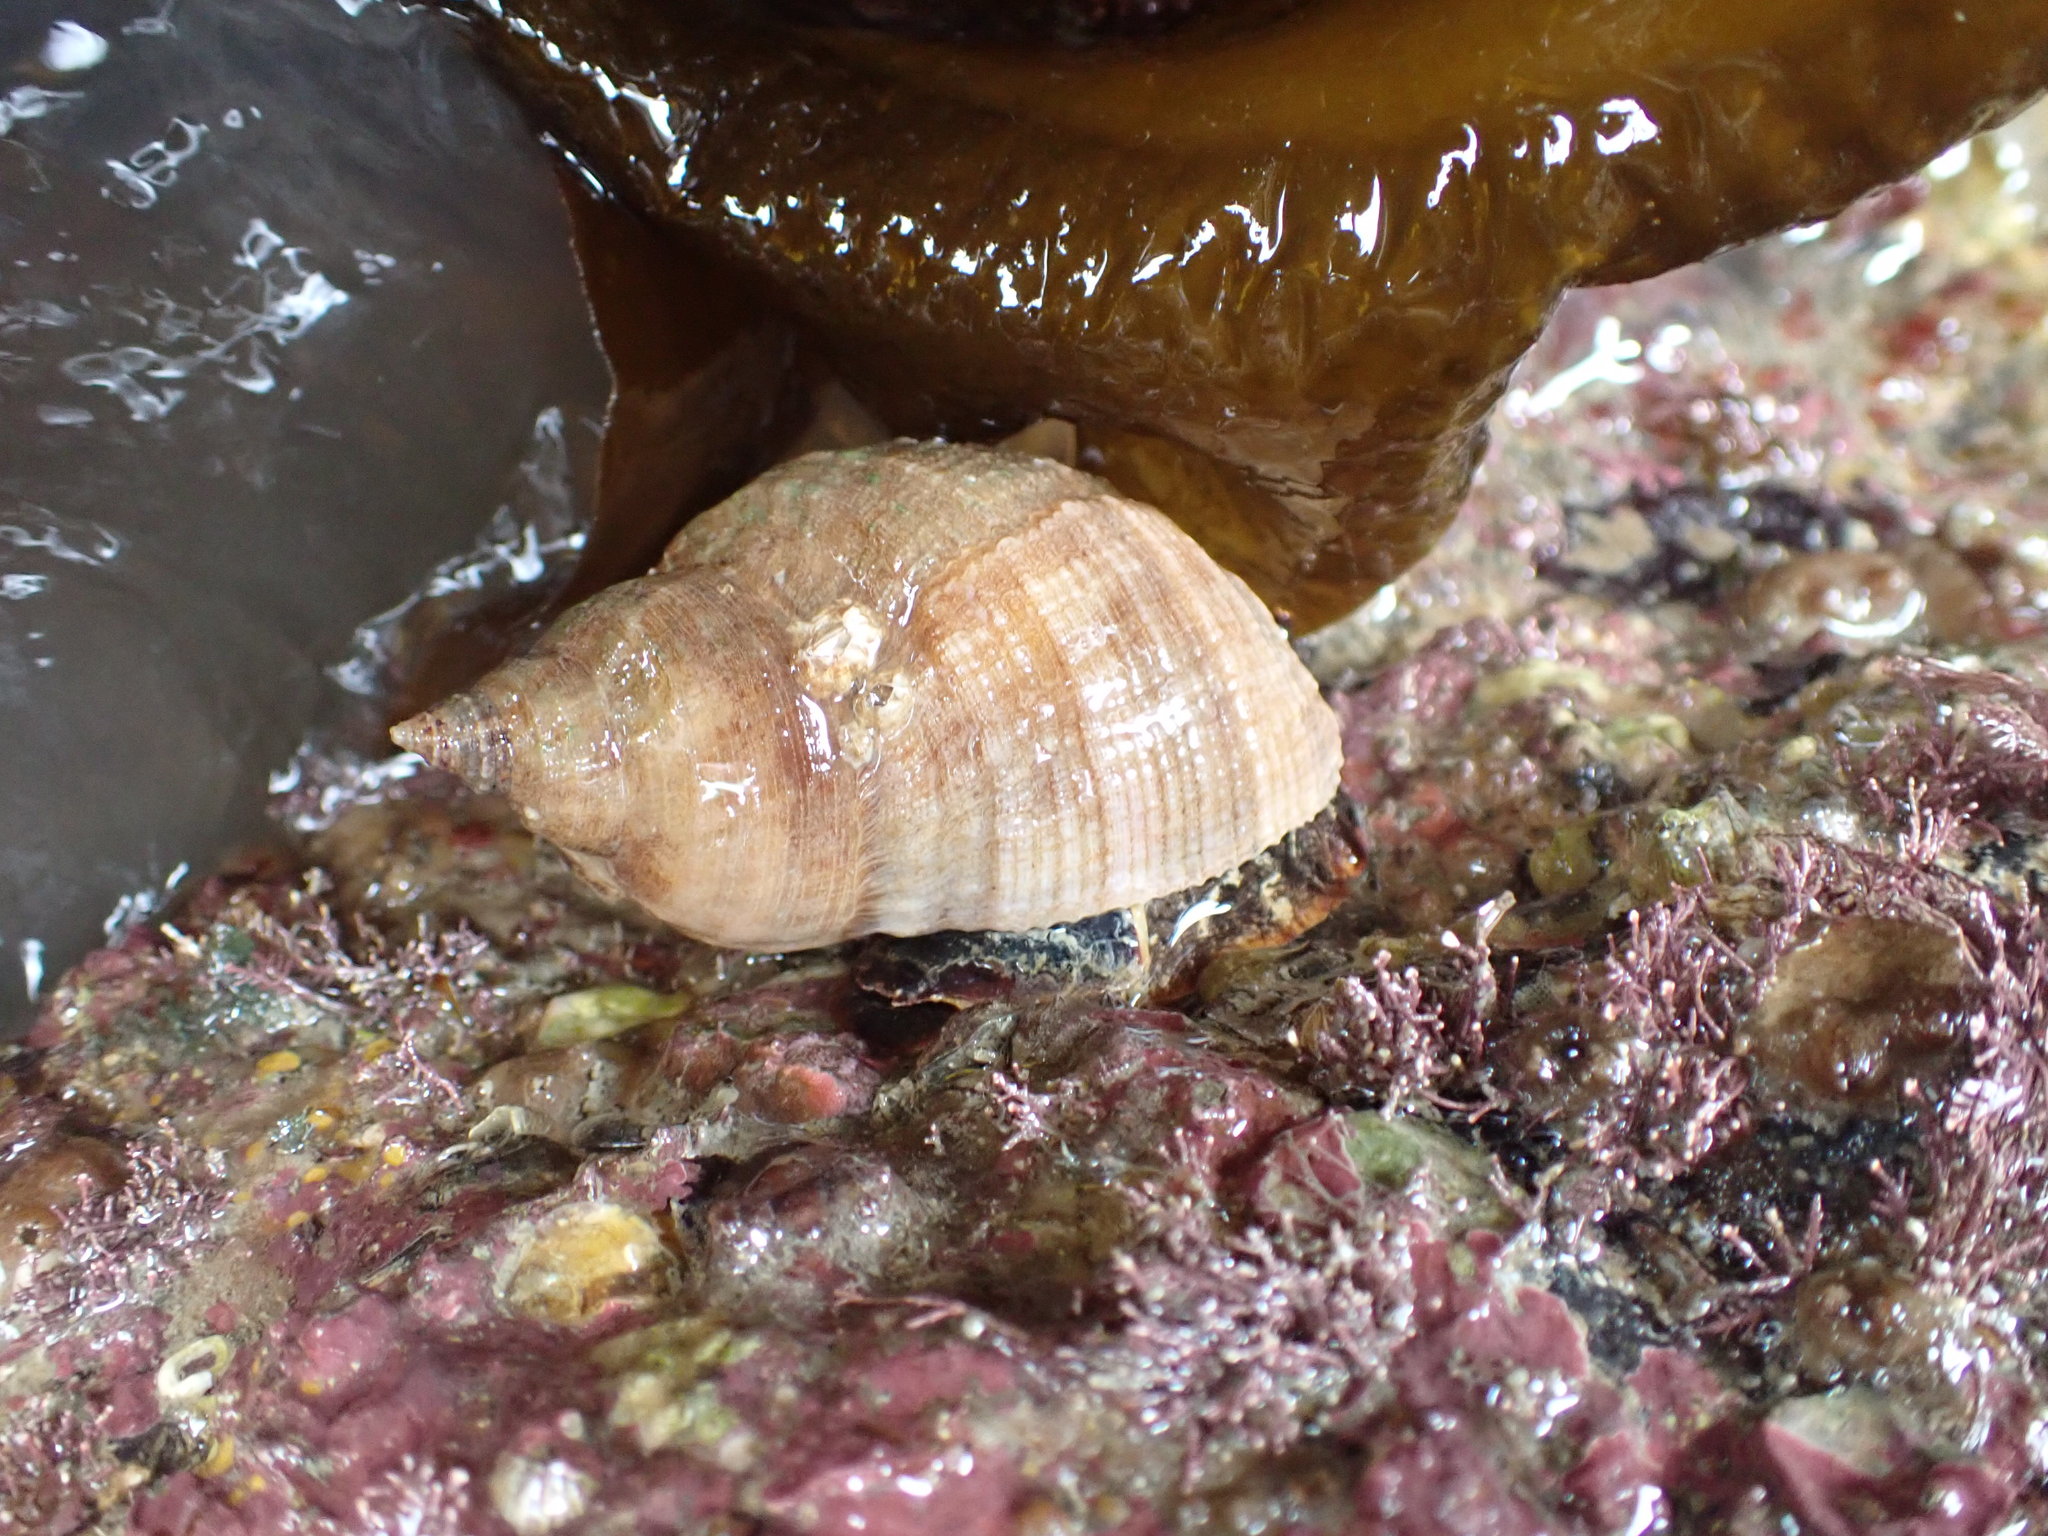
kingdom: Animalia
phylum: Mollusca
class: Gastropoda
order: Neogastropoda
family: Muricidae
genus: Dicathais
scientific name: Dicathais orbita
